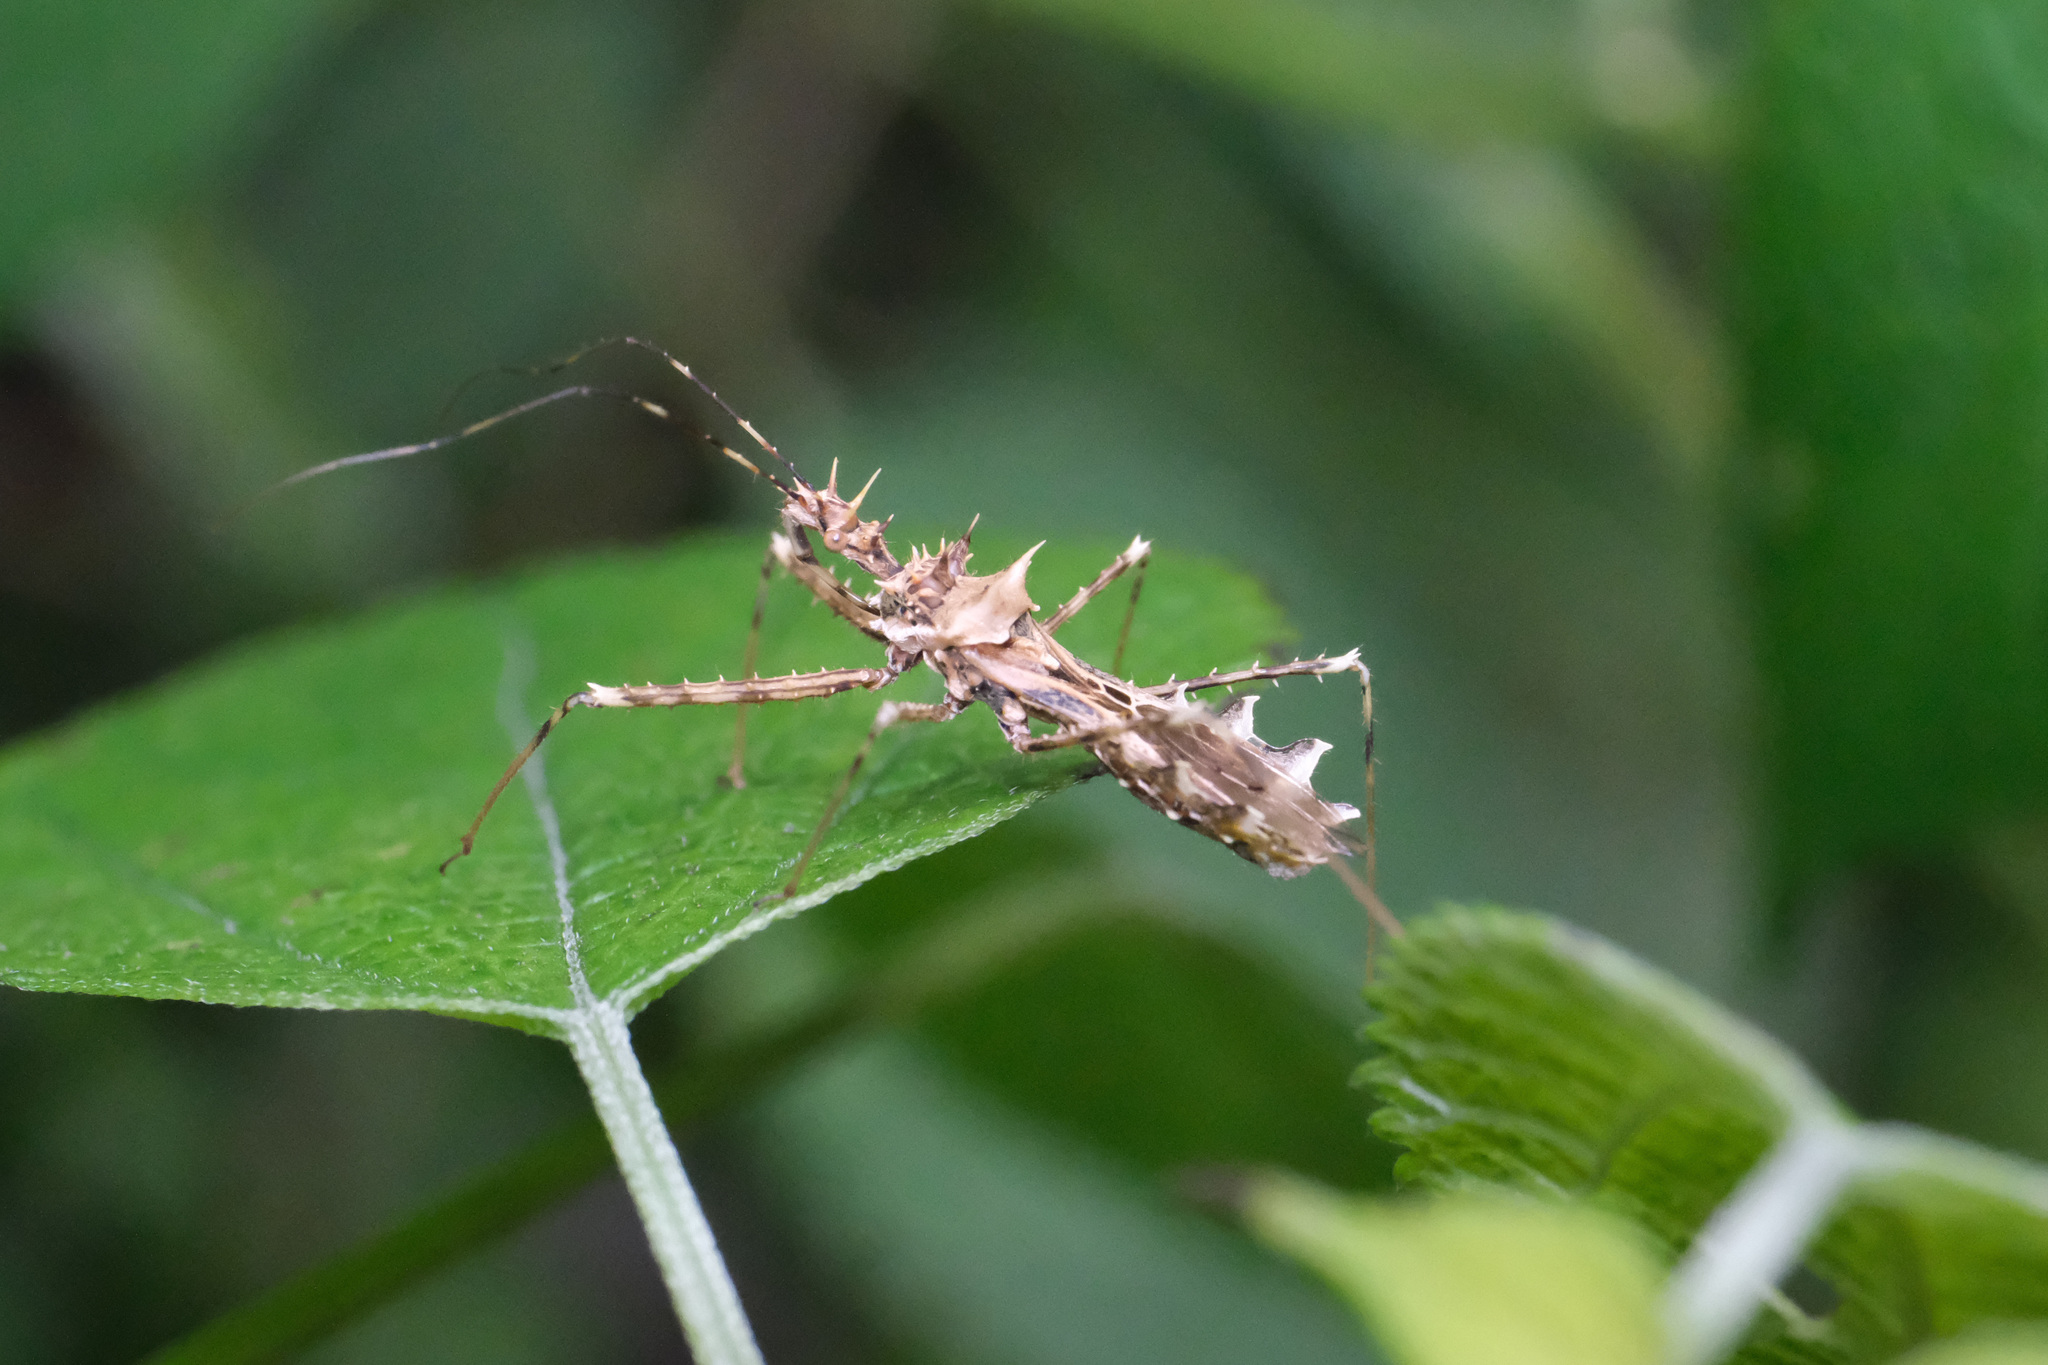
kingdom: Animalia
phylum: Arthropoda
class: Insecta
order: Hemiptera
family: Reduviidae
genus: Sclomina
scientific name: Sclomina erinacea
